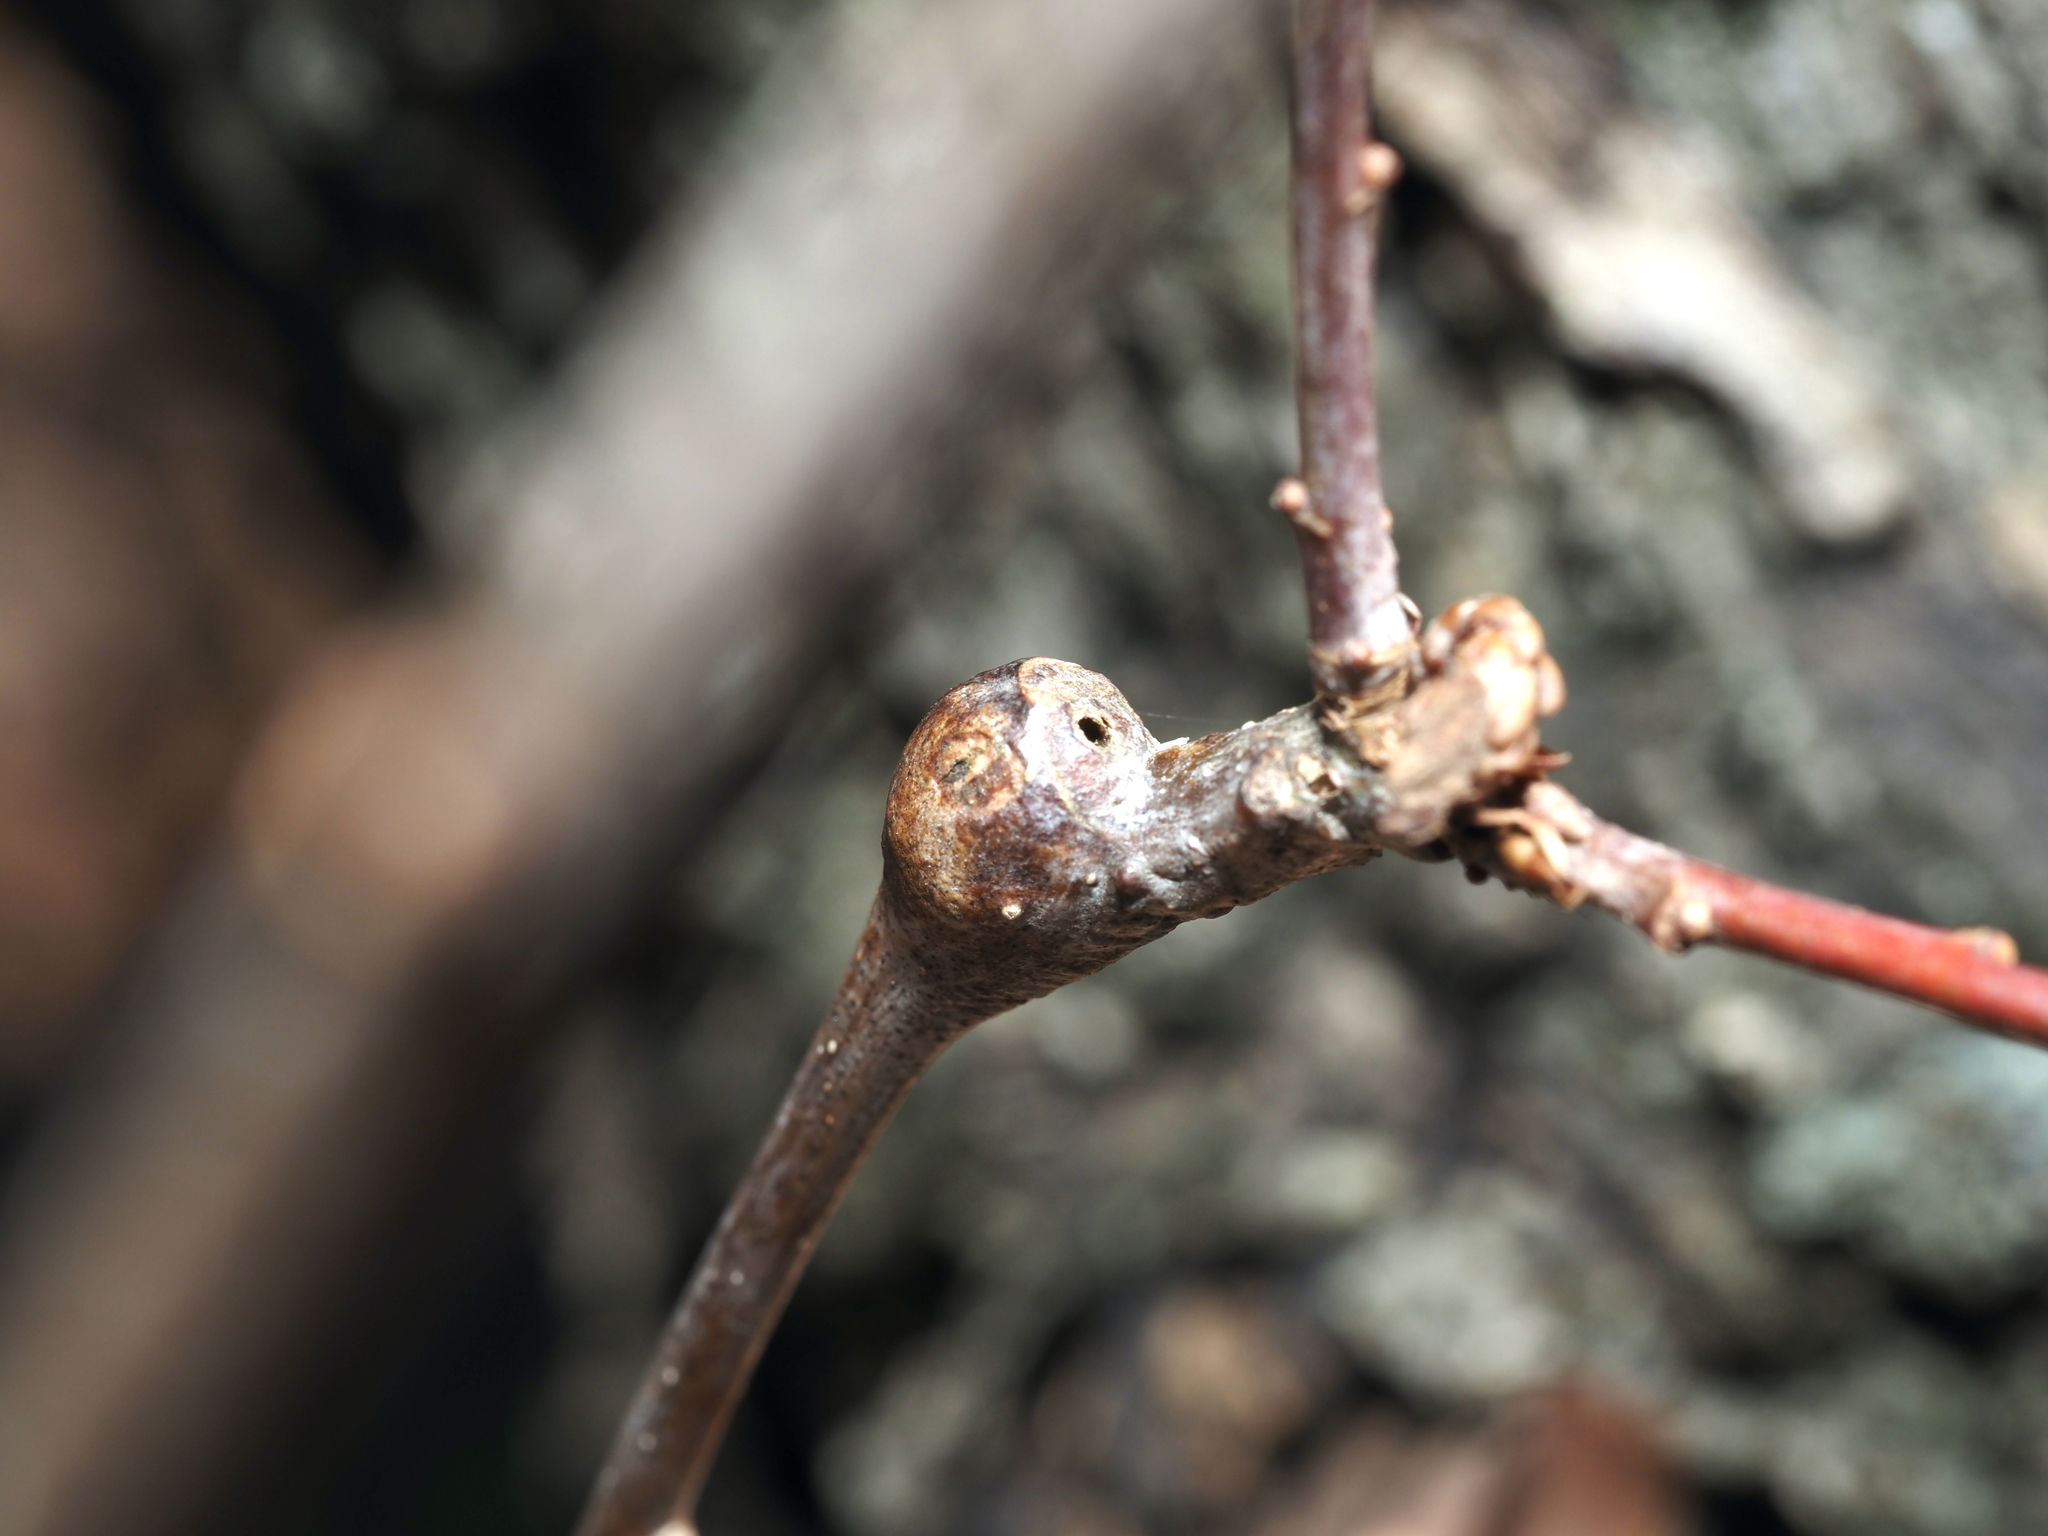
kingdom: Animalia
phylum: Arthropoda
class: Insecta
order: Hymenoptera
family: Cynipidae
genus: Callirhytis
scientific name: Callirhytis clavula
